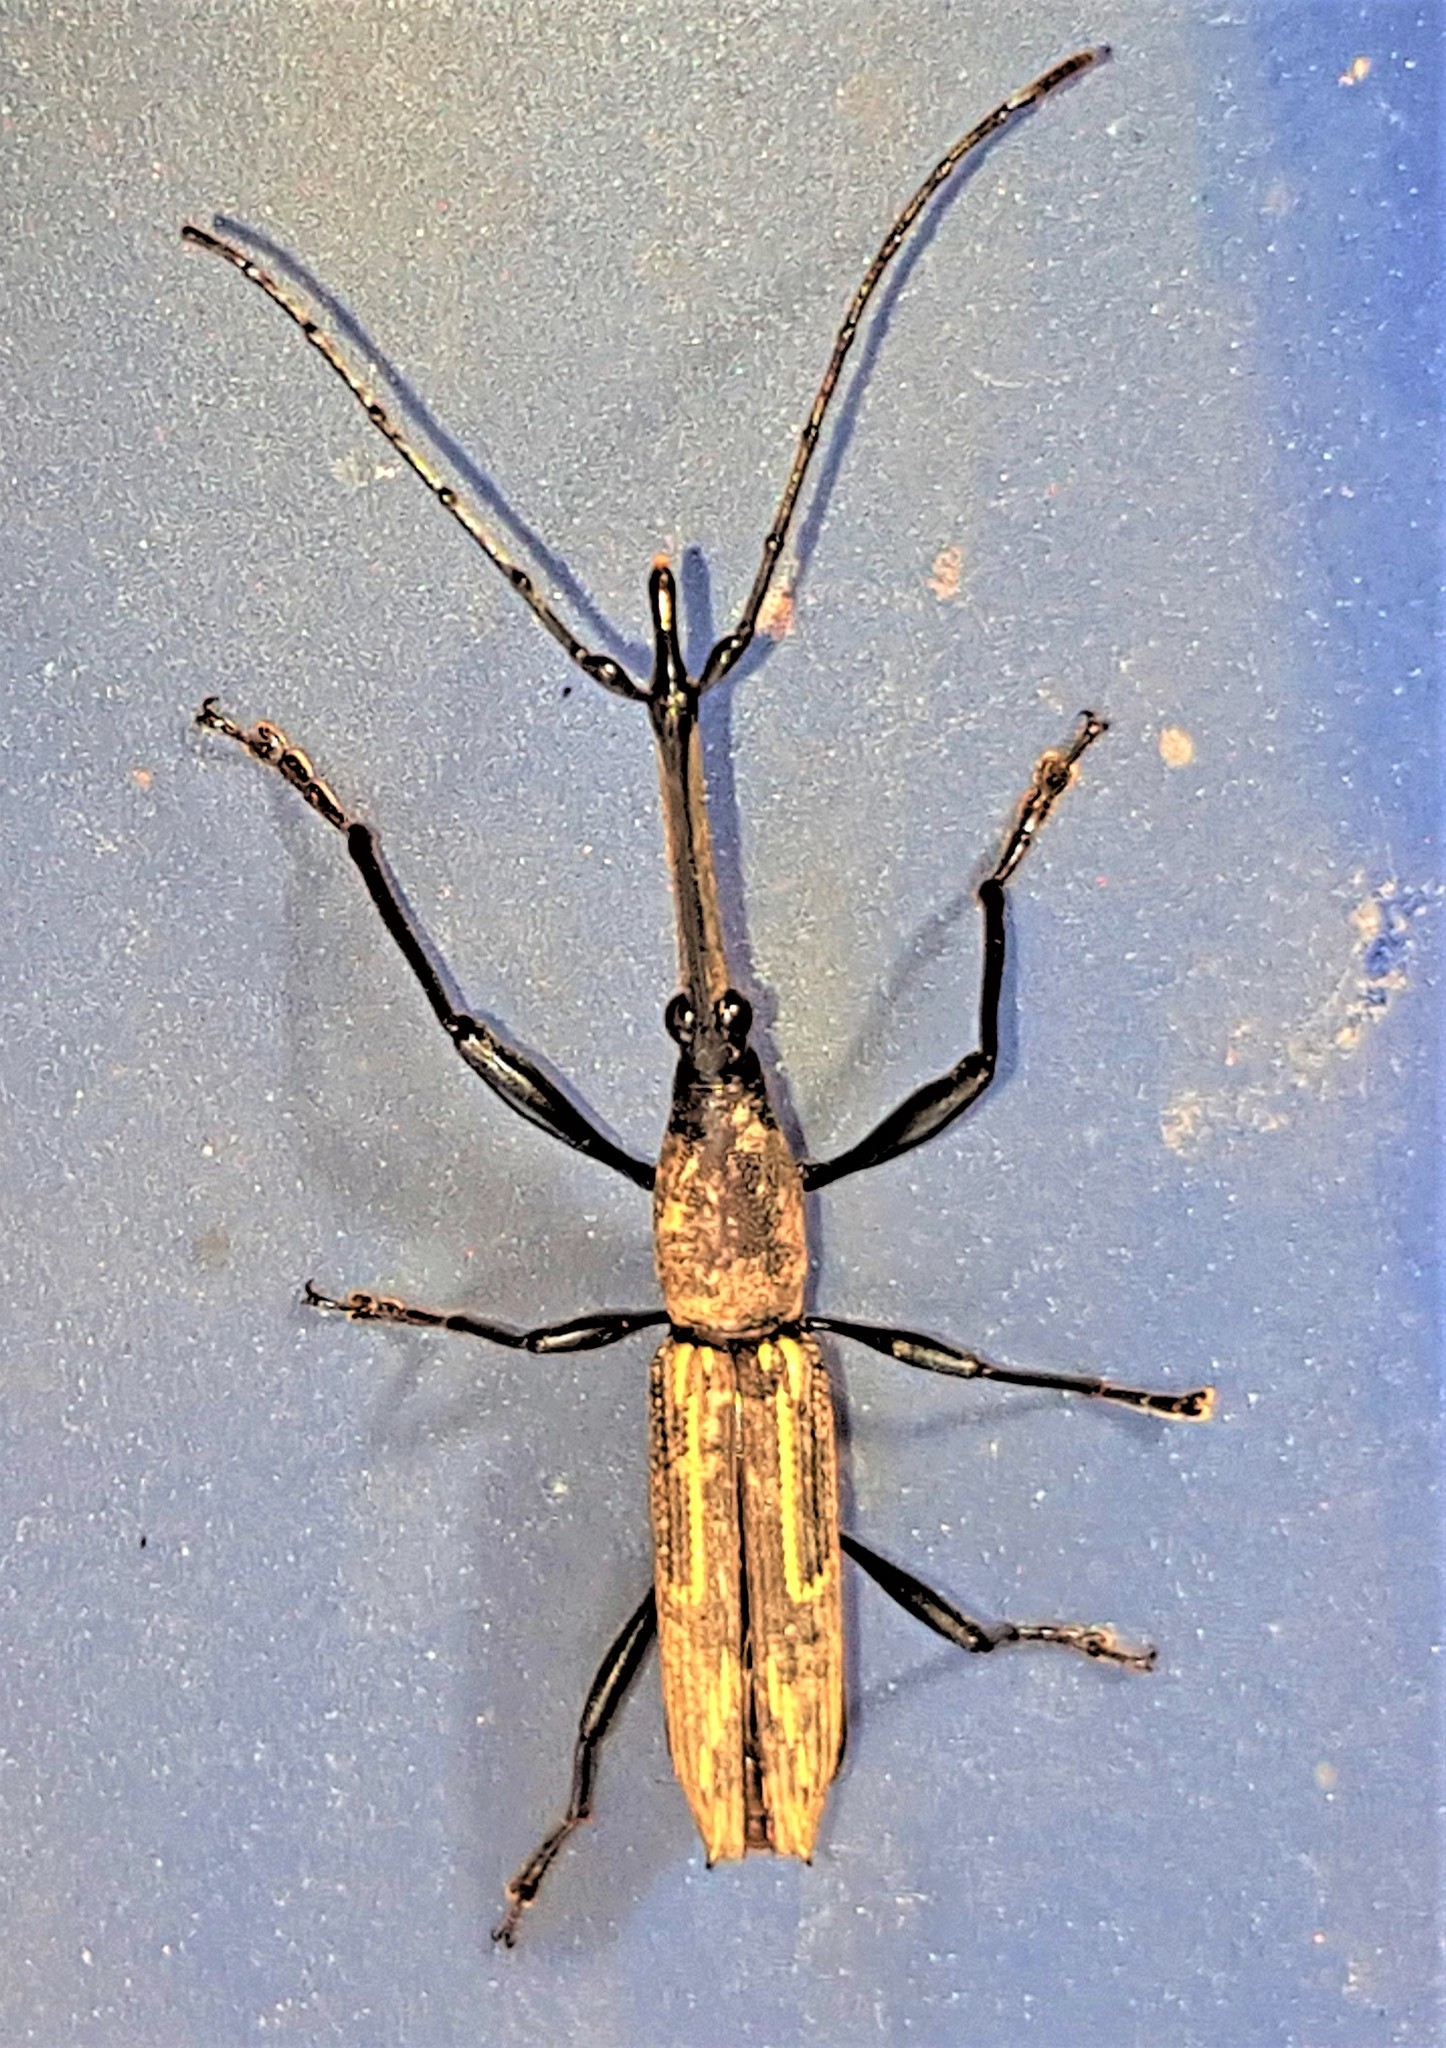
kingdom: Animalia
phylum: Arthropoda
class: Insecta
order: Coleoptera
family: Brentidae
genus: Nemorhinus
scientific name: Nemorhinus myrmecophaga
